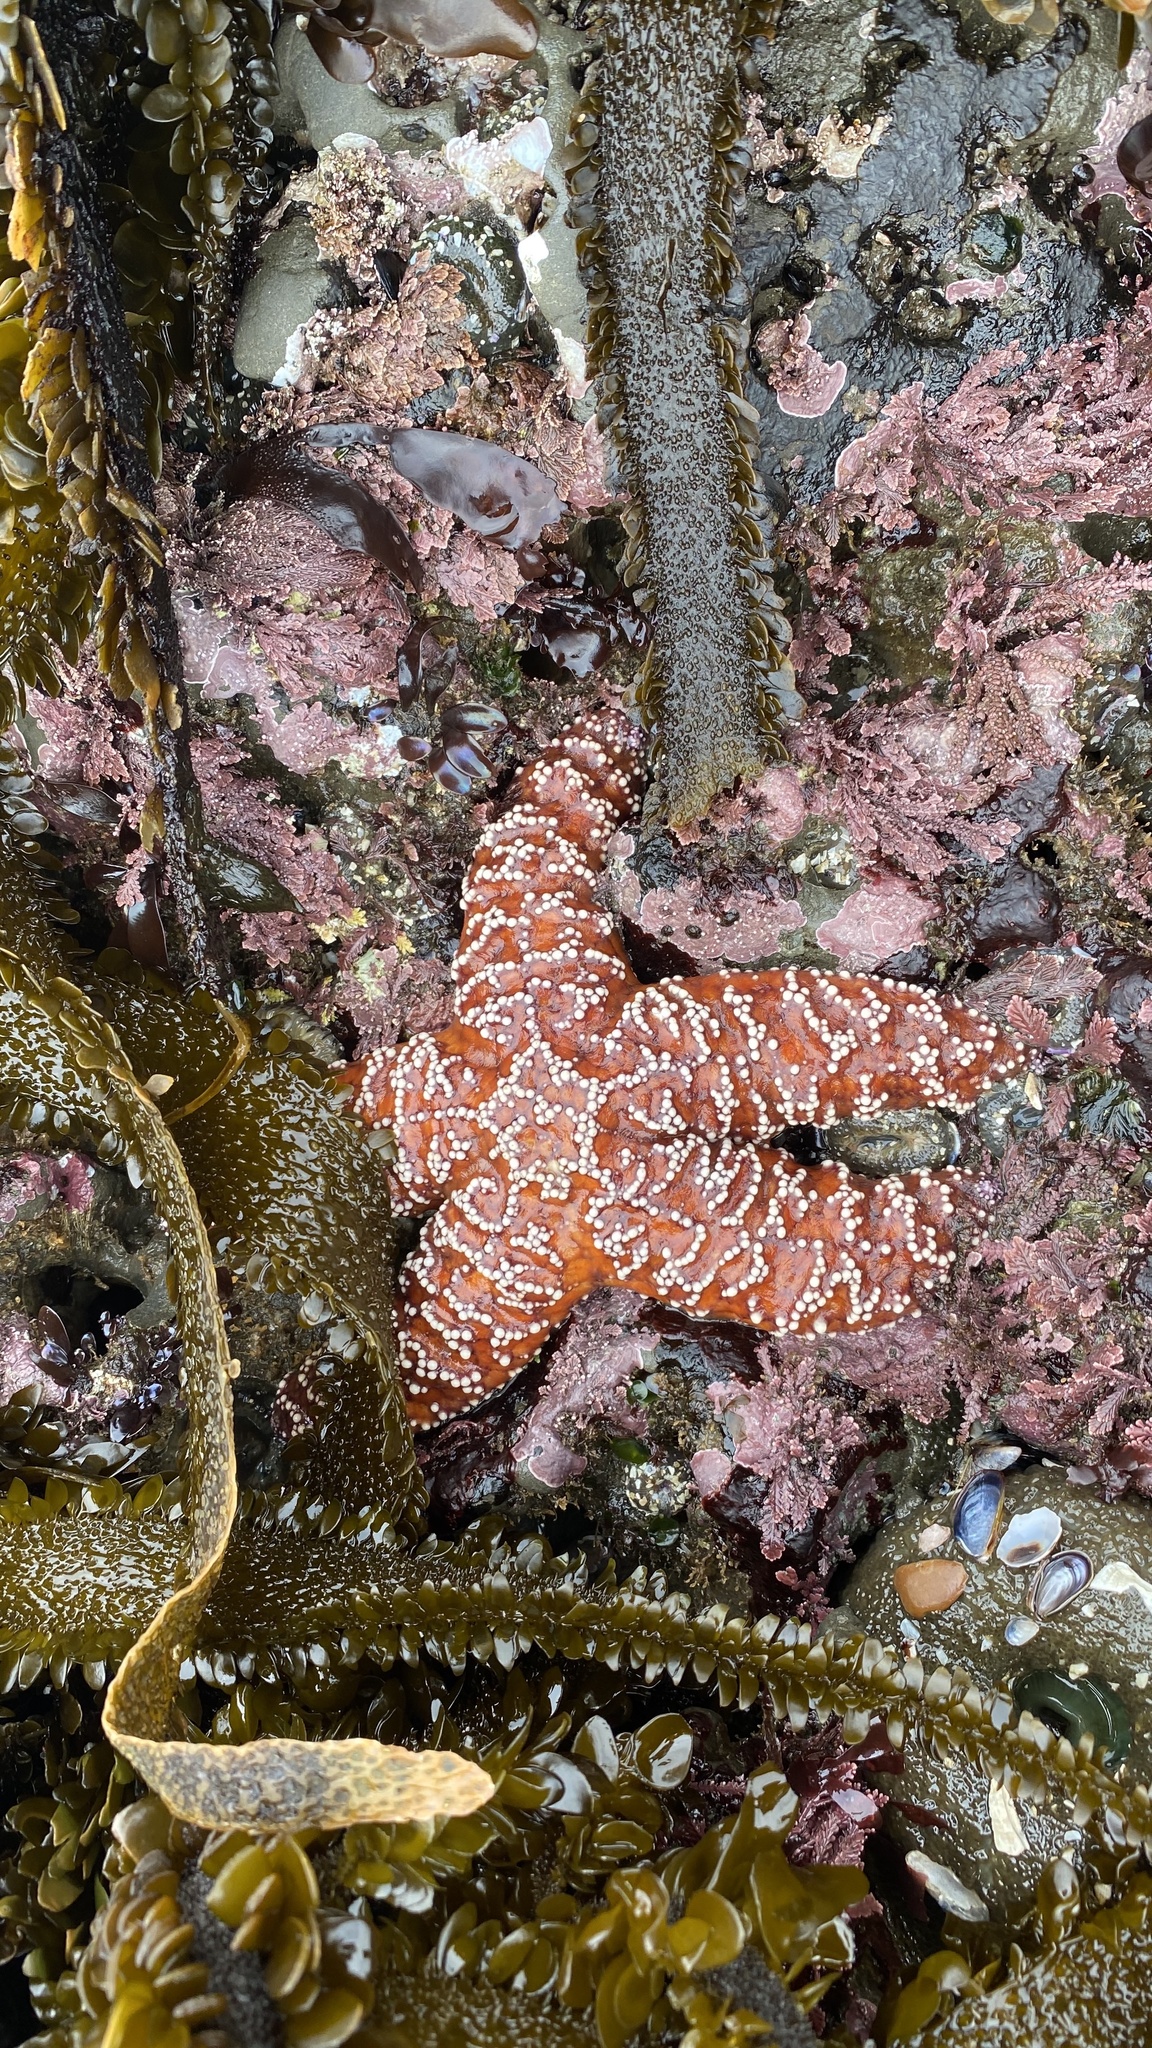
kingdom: Animalia
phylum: Echinodermata
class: Asteroidea
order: Forcipulatida
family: Asteriidae
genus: Pisaster
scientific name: Pisaster ochraceus
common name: Ochre stars
